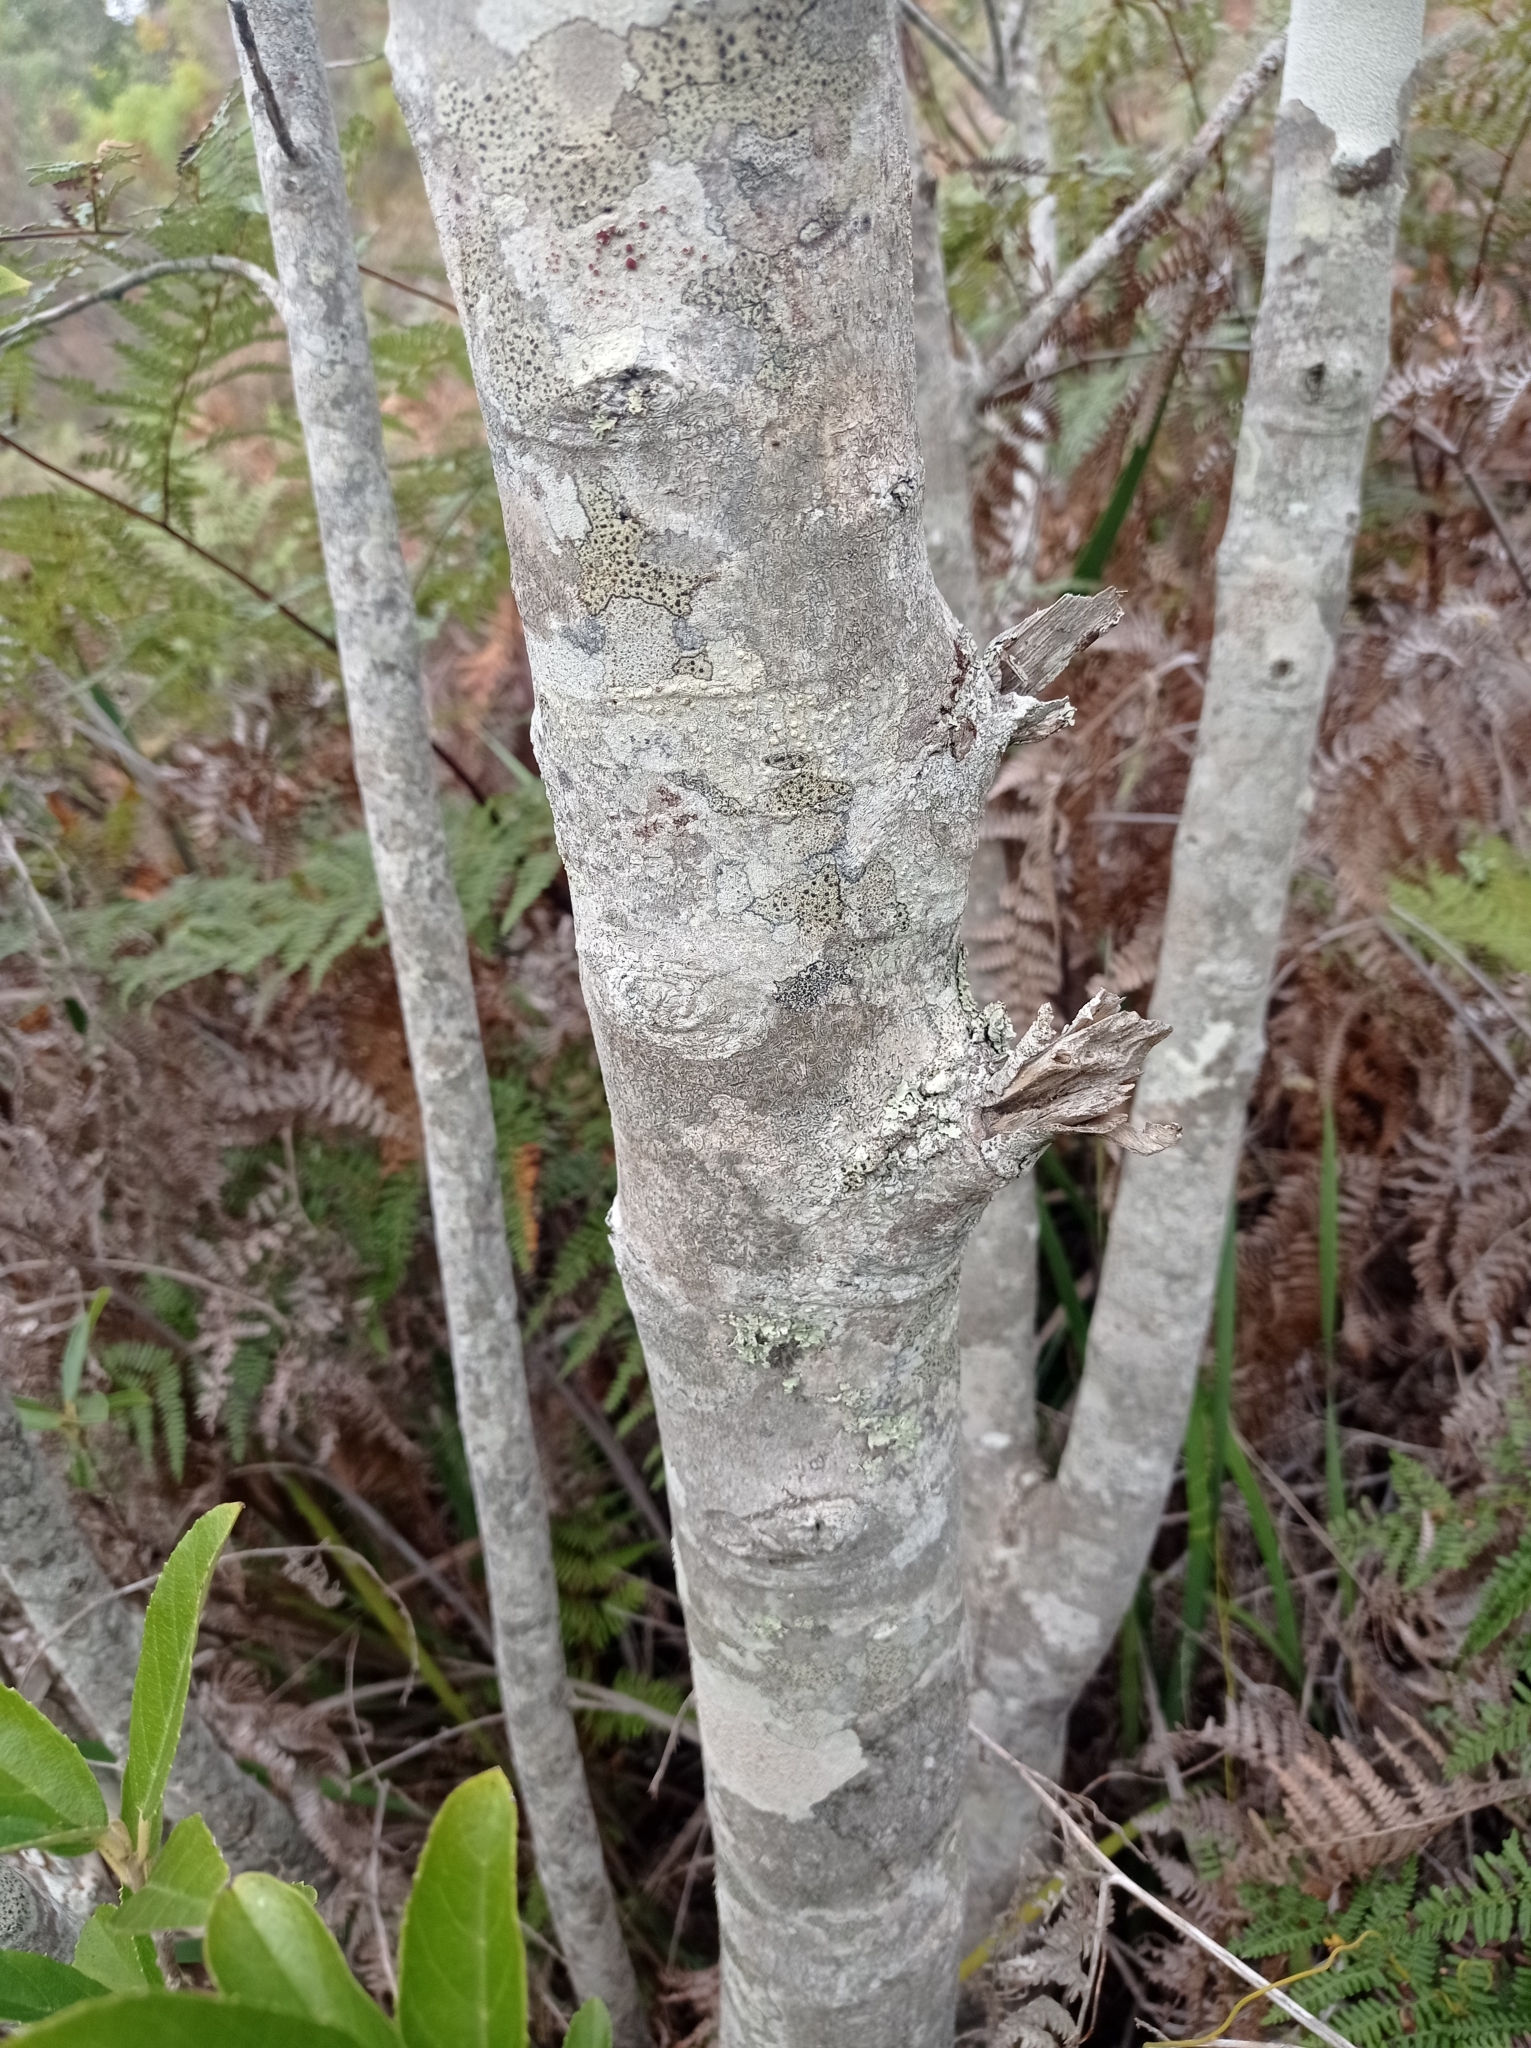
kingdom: Plantae
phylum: Tracheophyta
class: Magnoliopsida
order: Malpighiales
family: Achariaceae
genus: Kiggelaria
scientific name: Kiggelaria africana
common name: Wild peach
